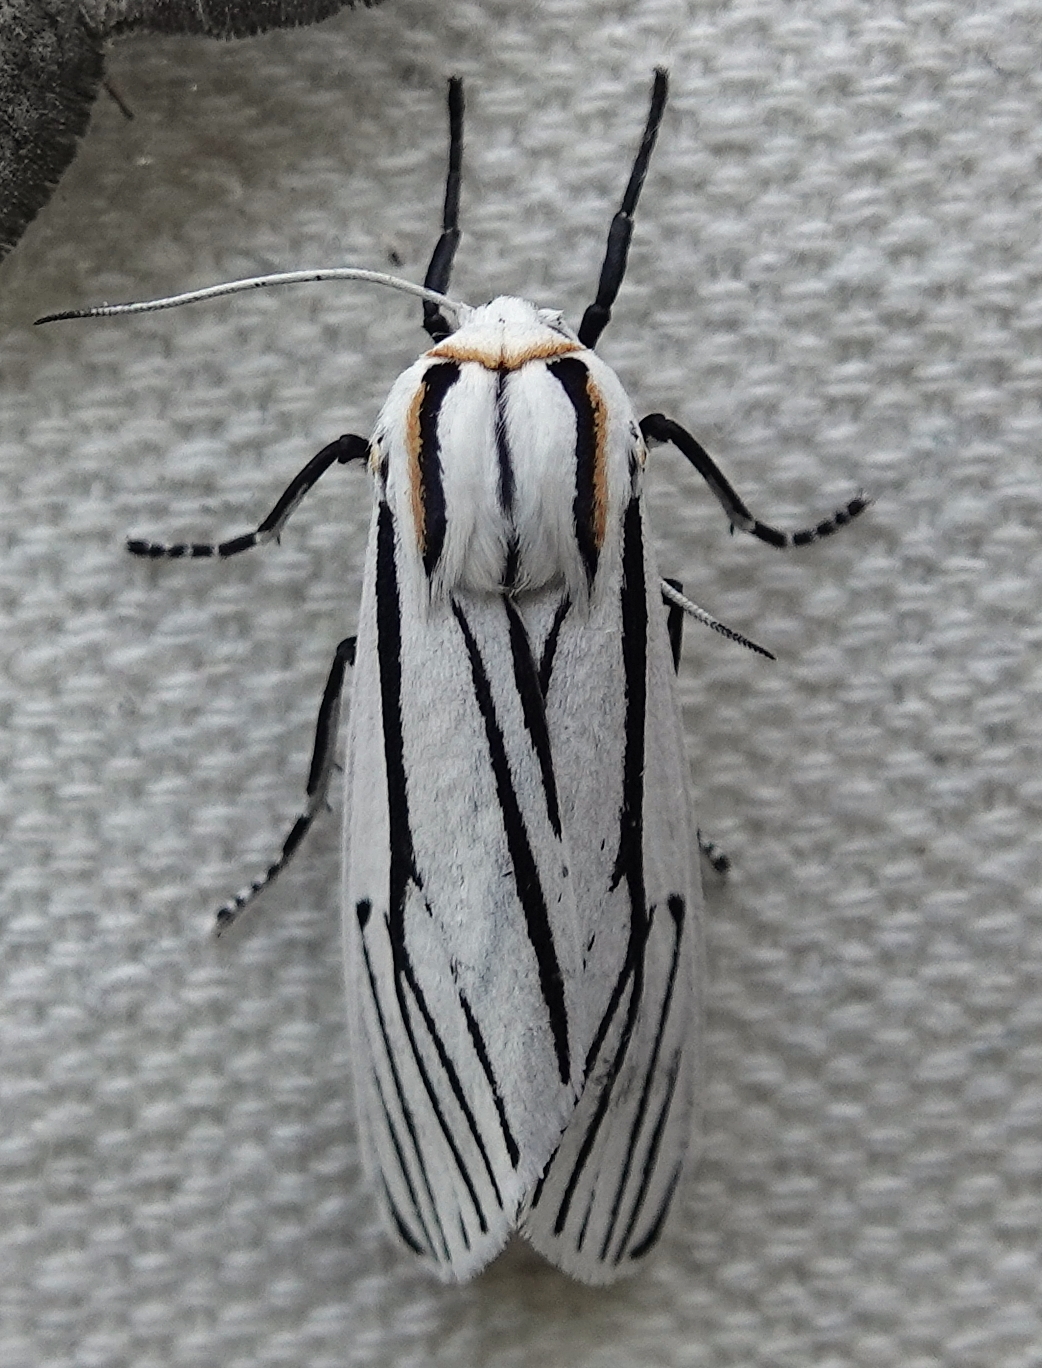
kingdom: Animalia
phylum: Arthropoda
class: Insecta
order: Lepidoptera
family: Erebidae
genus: Ectypia
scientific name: Ectypia clio
